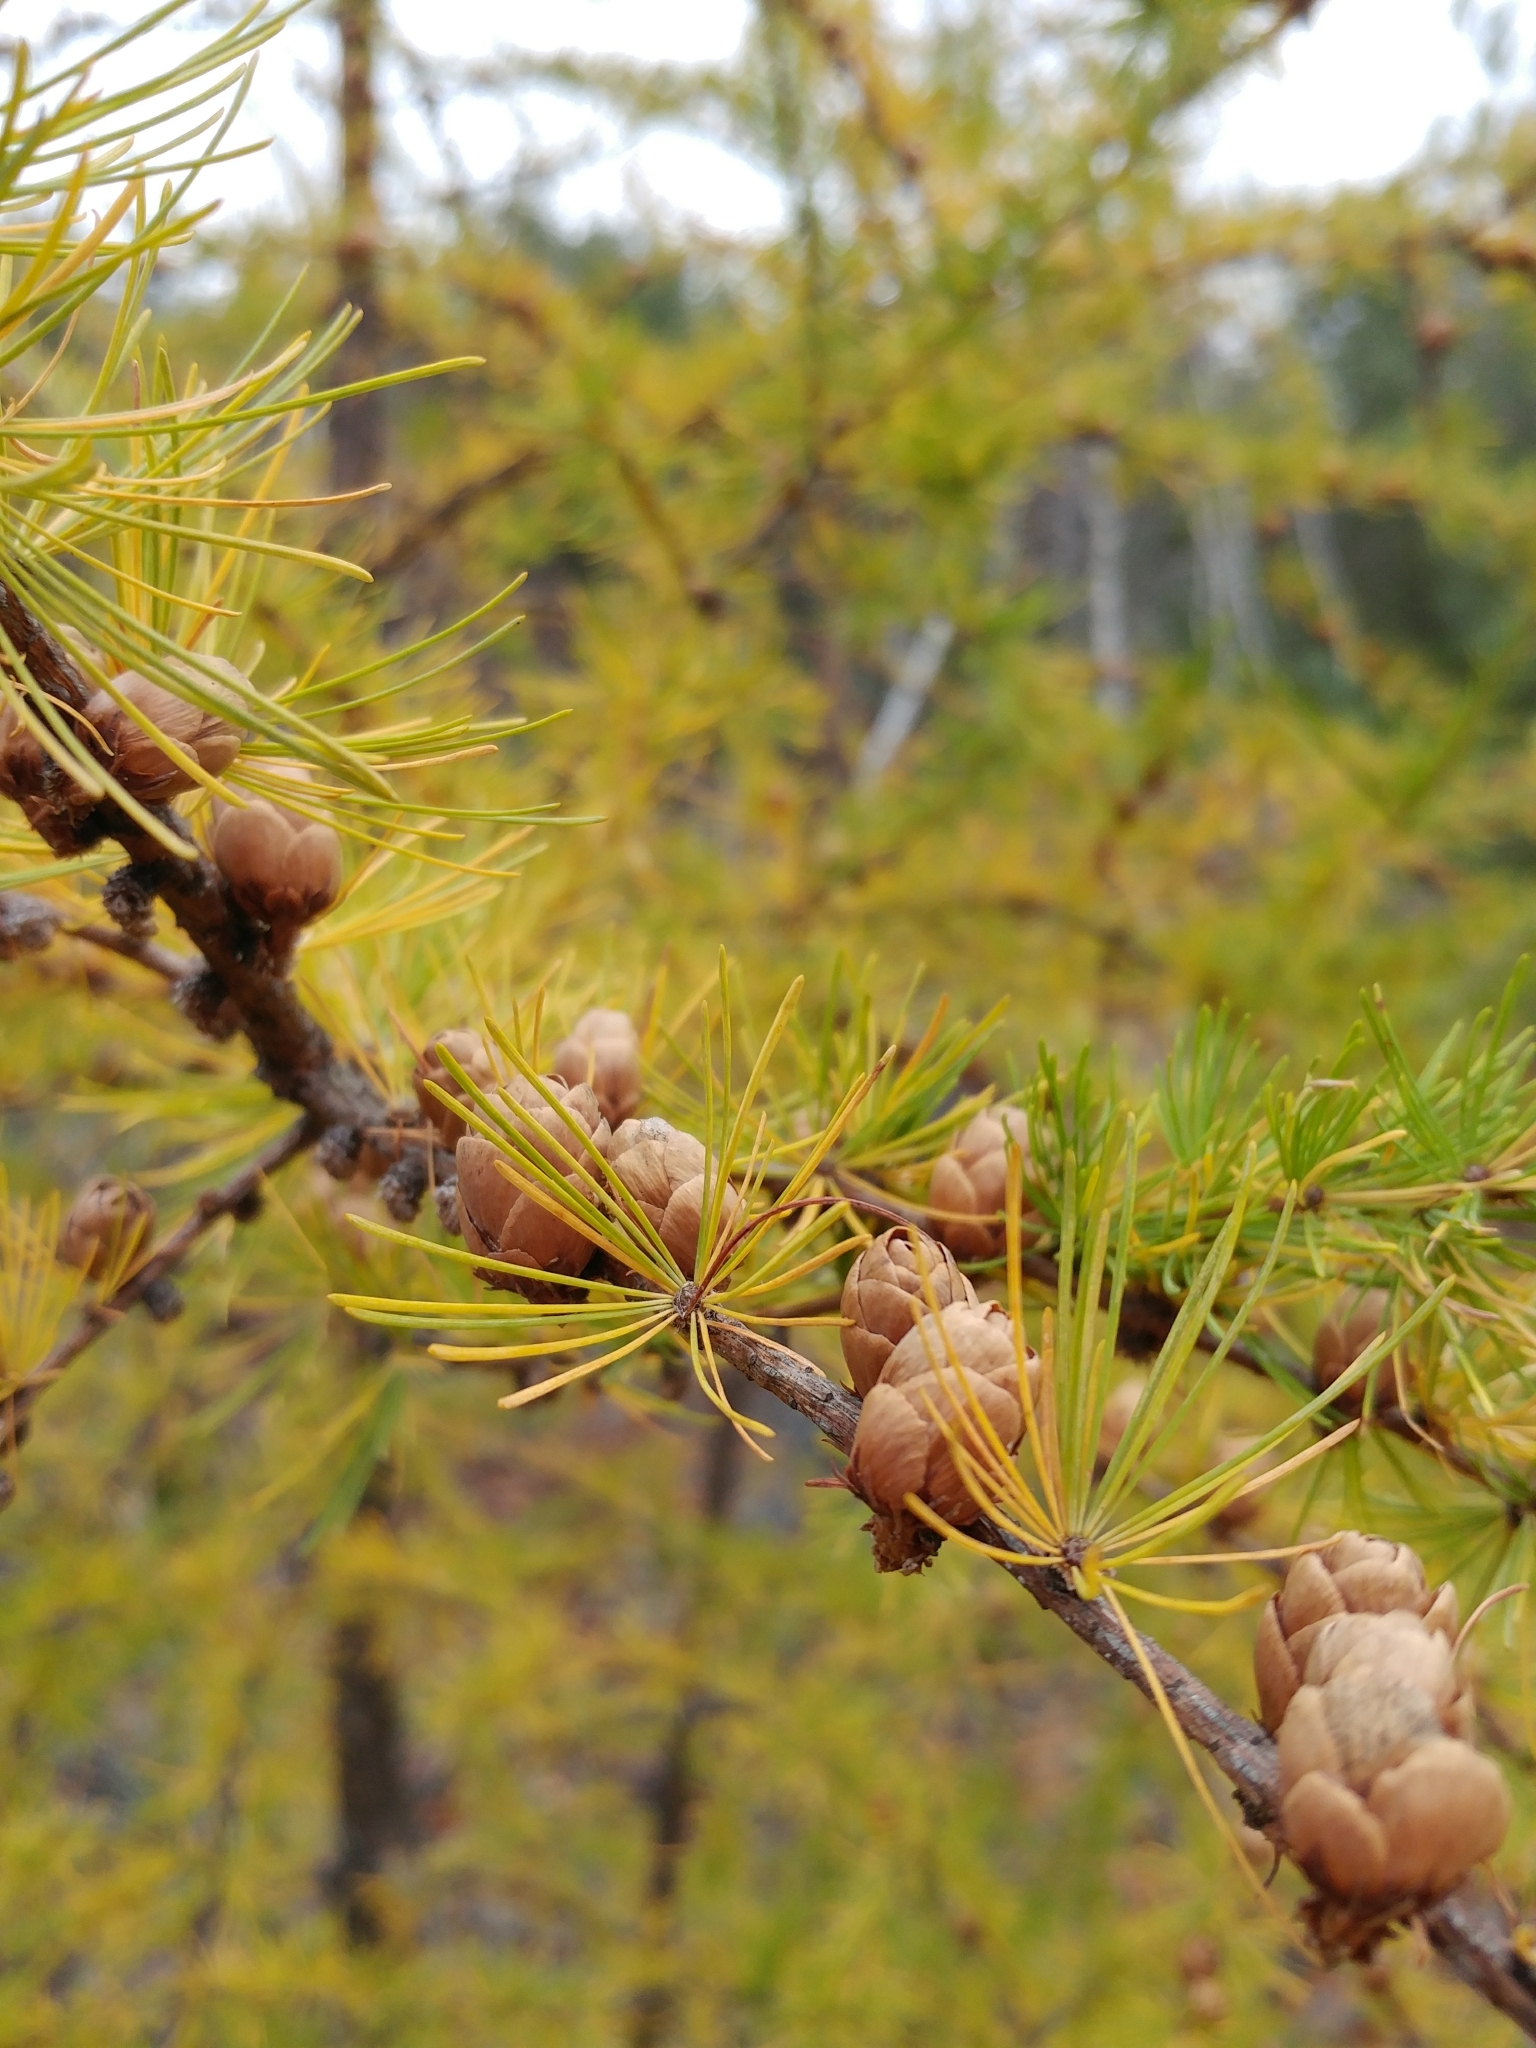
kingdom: Plantae
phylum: Tracheophyta
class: Pinopsida
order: Pinales
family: Pinaceae
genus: Larix
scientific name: Larix laricina
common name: American larch
